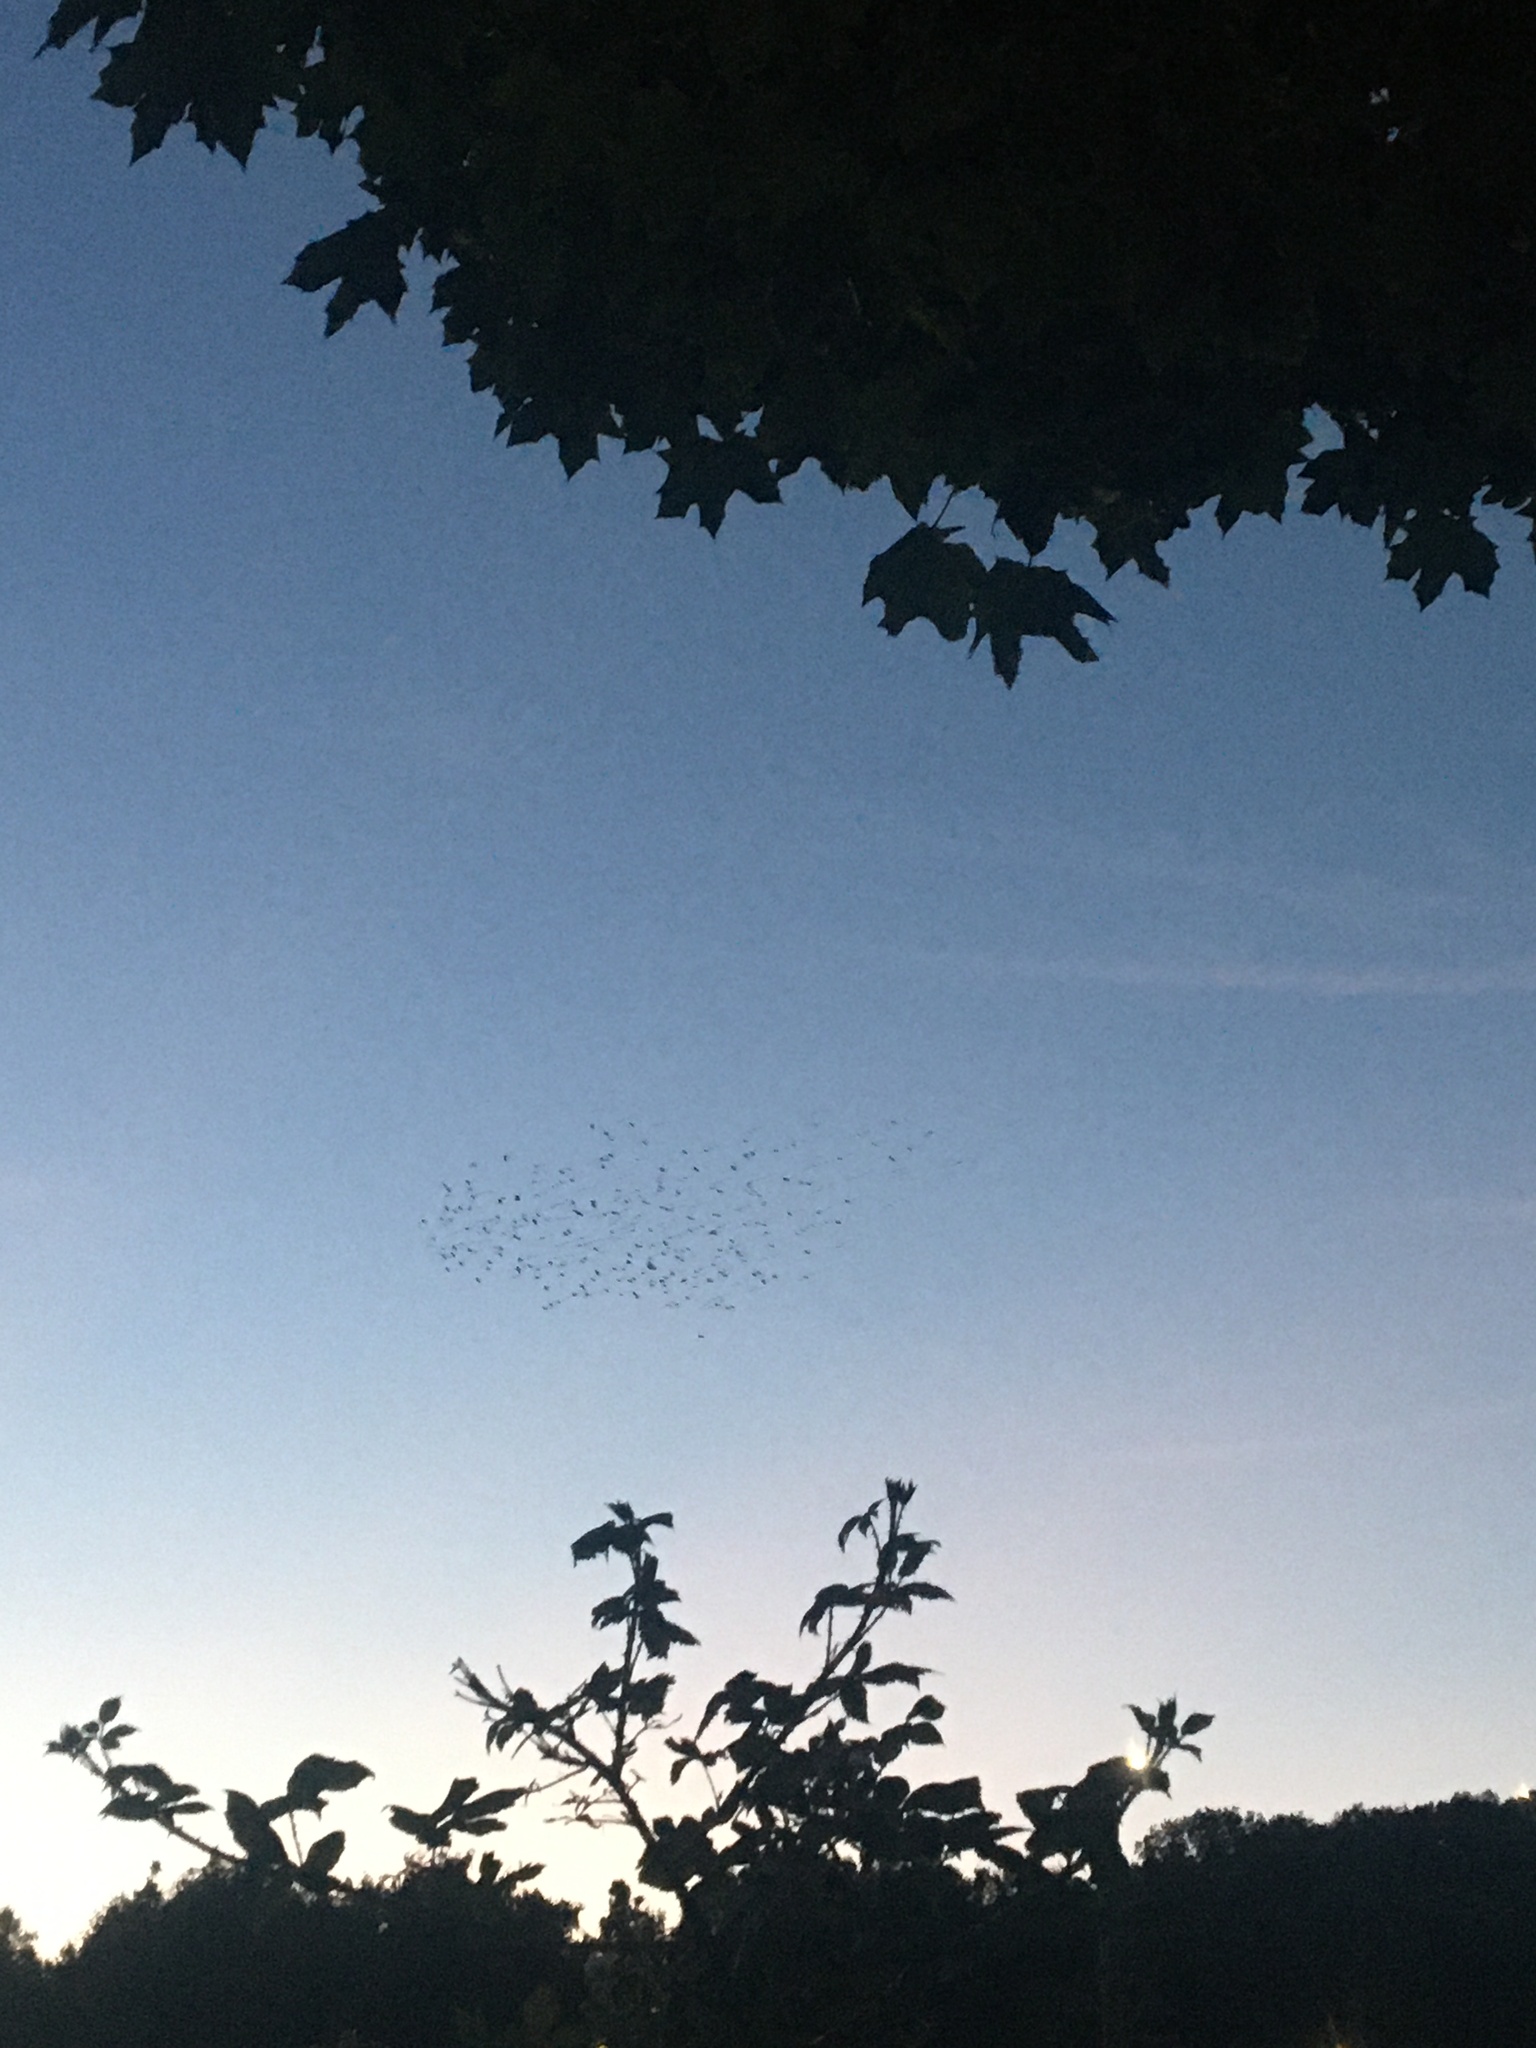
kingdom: Animalia
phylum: Chordata
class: Aves
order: Passeriformes
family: Sturnidae
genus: Sturnus
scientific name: Sturnus vulgaris
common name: Common starling
